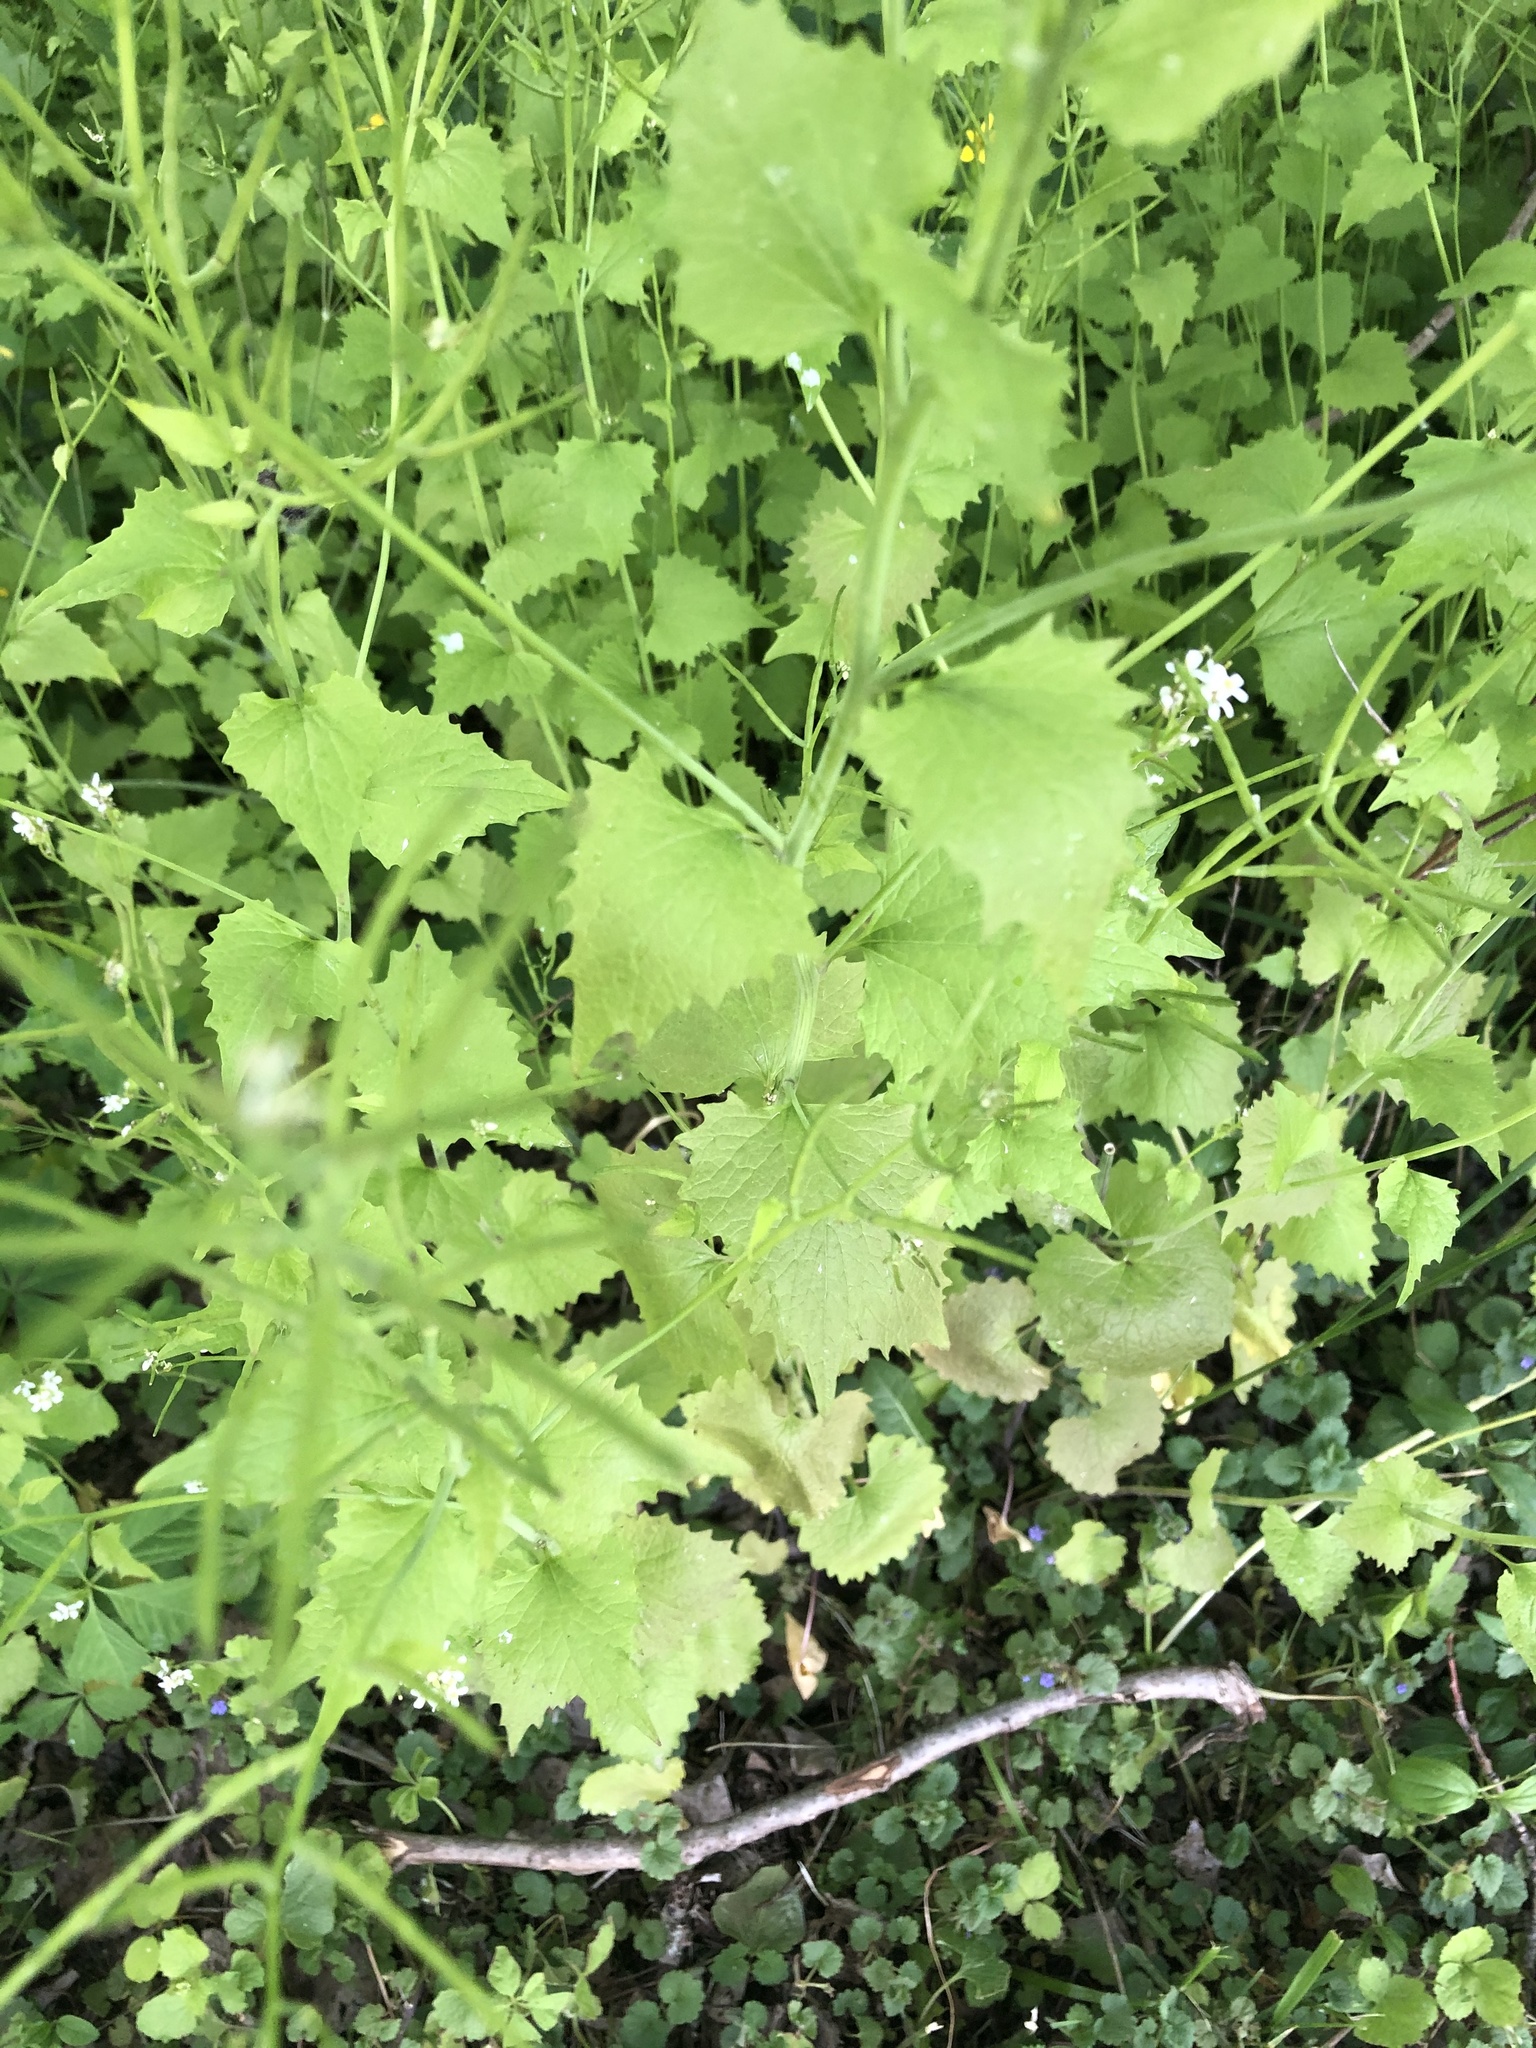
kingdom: Plantae
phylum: Tracheophyta
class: Magnoliopsida
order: Brassicales
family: Brassicaceae
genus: Alliaria
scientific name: Alliaria petiolata
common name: Garlic mustard
